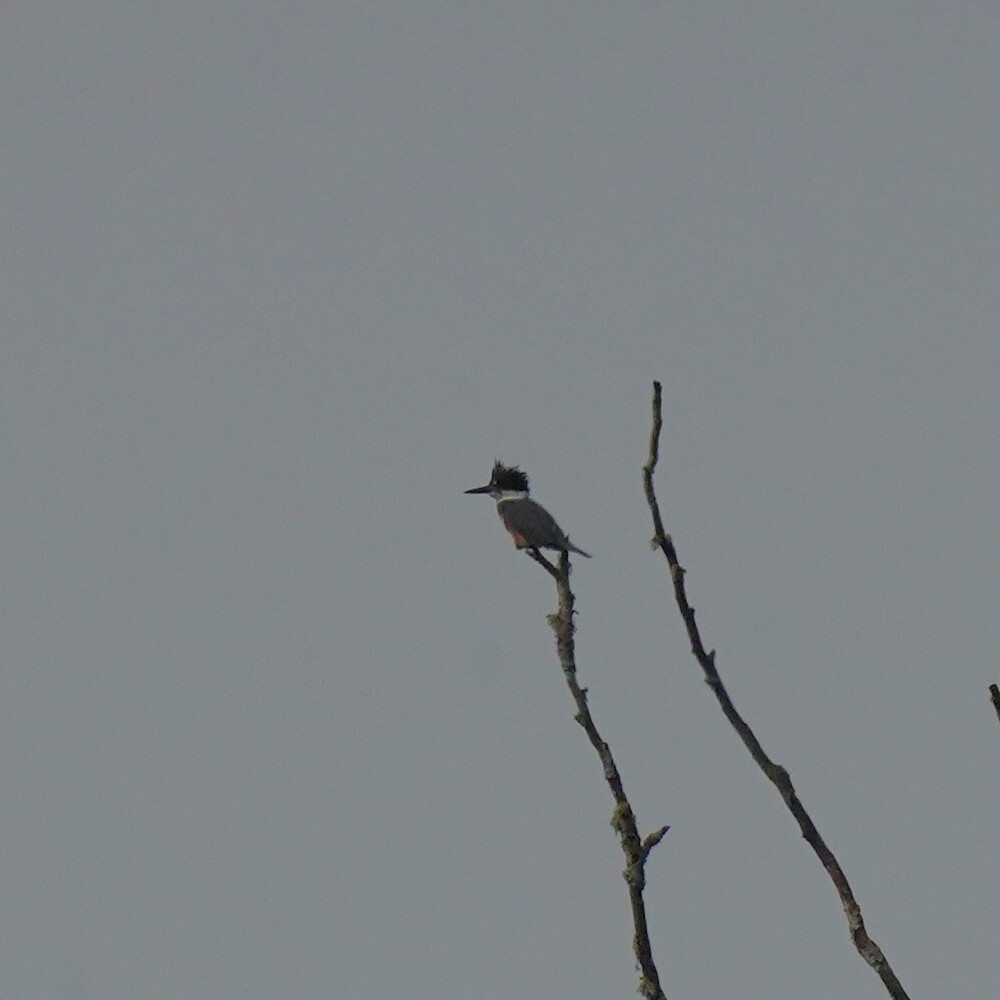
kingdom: Animalia
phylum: Chordata
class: Aves
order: Coraciiformes
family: Alcedinidae
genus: Megaceryle
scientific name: Megaceryle alcyon
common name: Belted kingfisher
